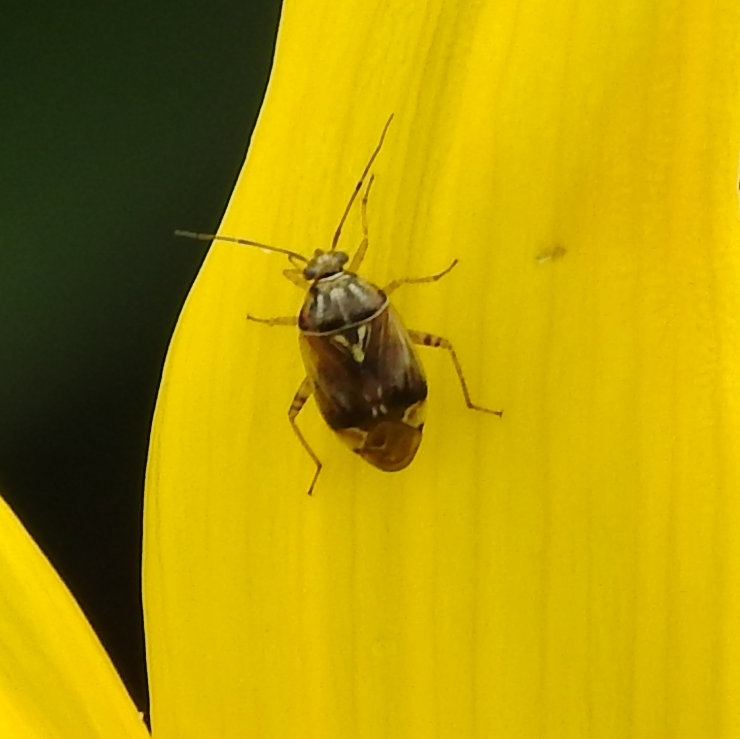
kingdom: Animalia
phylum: Arthropoda
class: Insecta
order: Hemiptera
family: Miridae
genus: Lygus
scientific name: Lygus lineolaris
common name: North american tarnished plant bug
